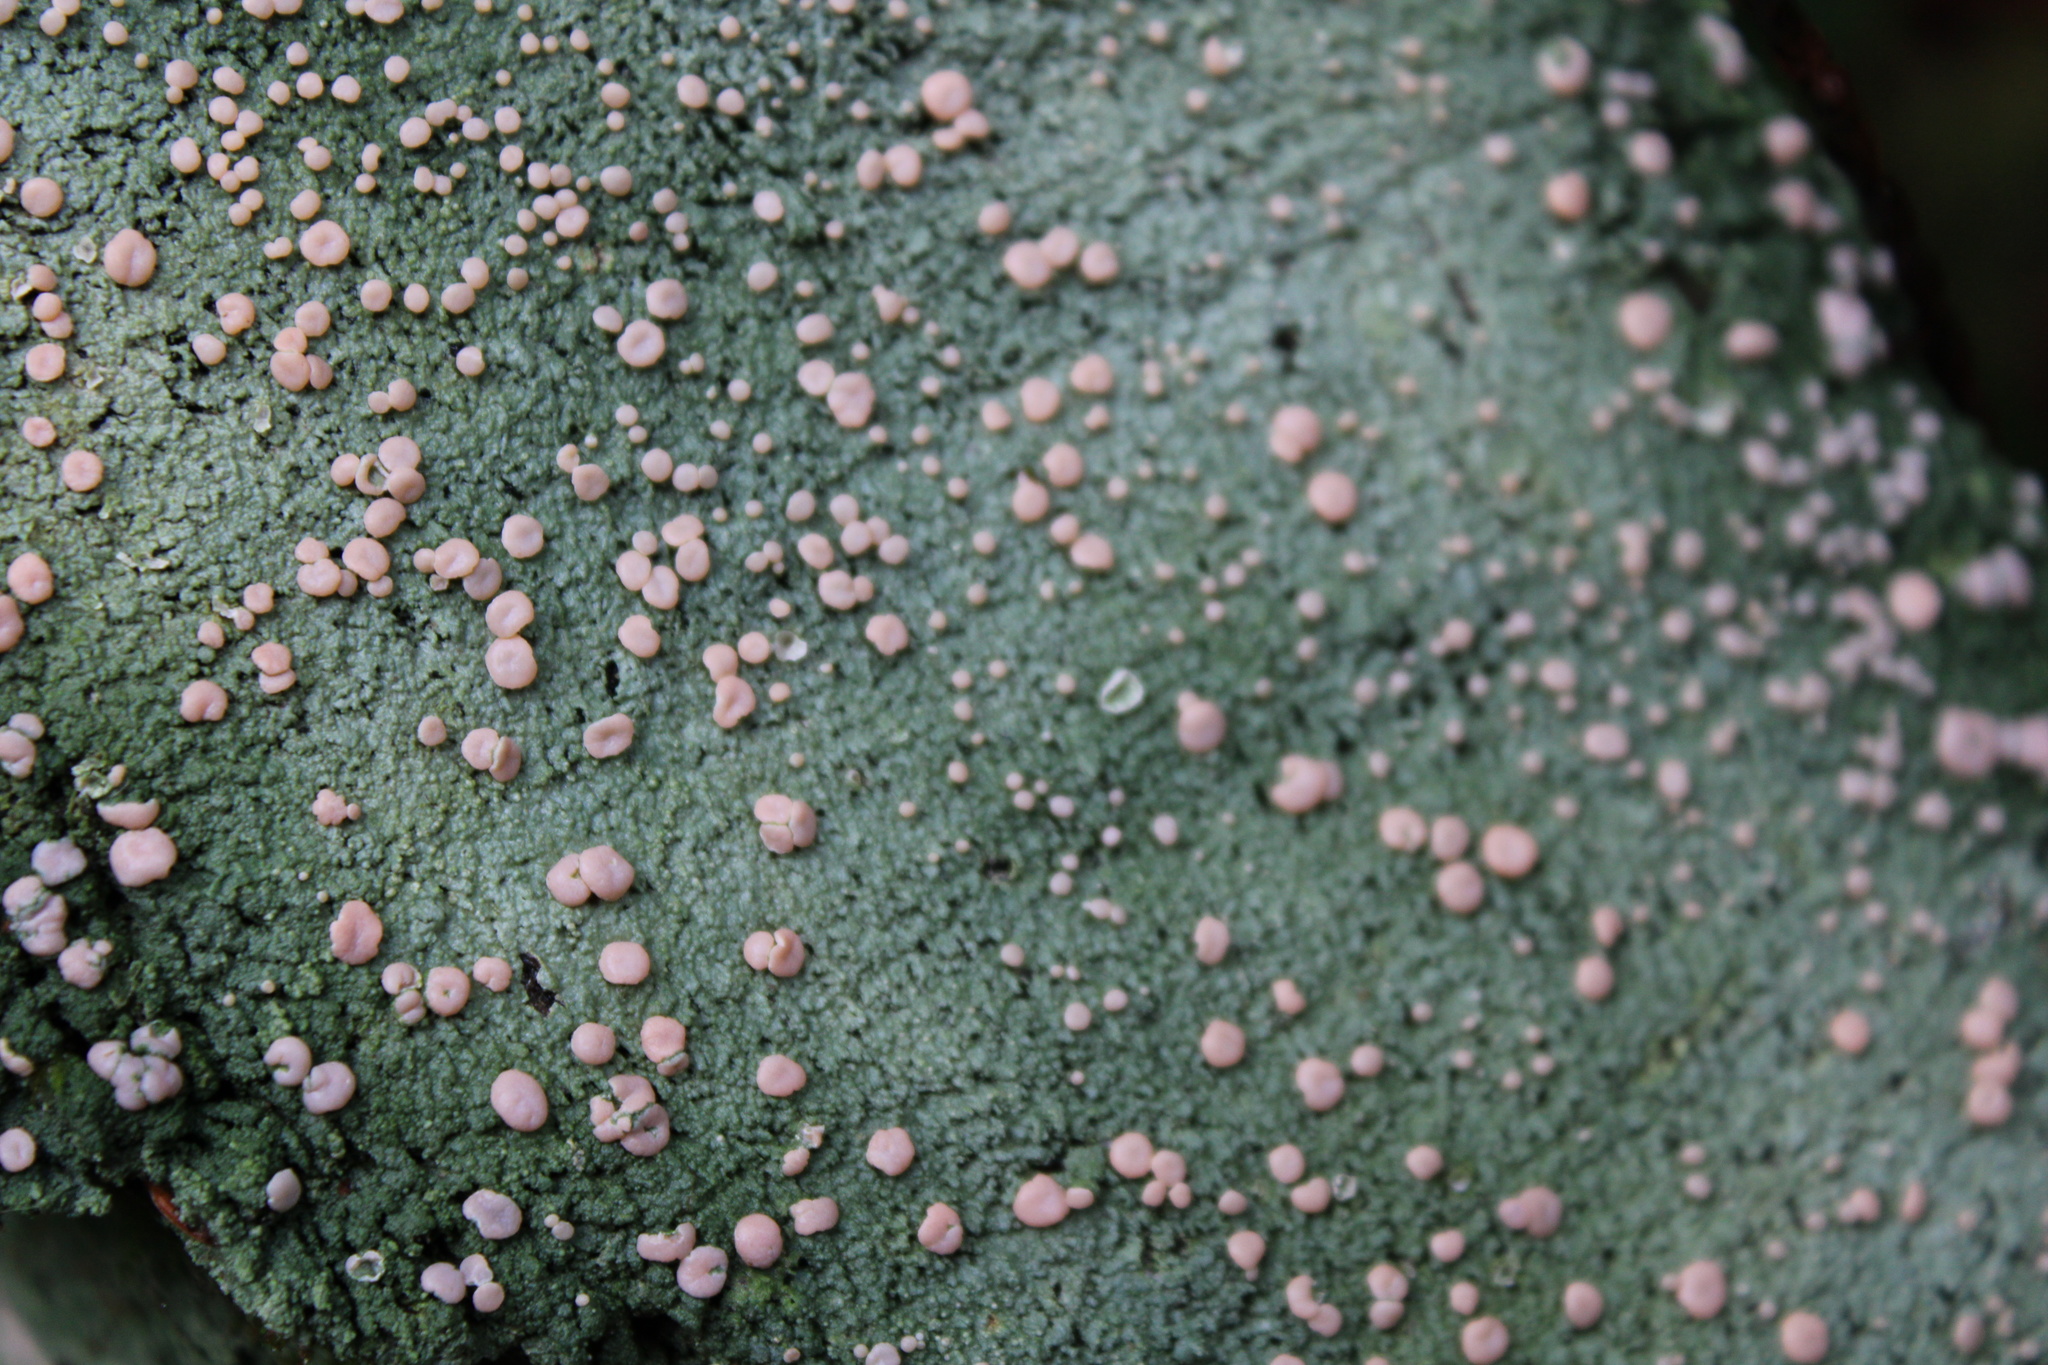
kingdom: Fungi
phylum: Ascomycota
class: Lecanoromycetes
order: Pertusariales
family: Icmadophilaceae
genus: Icmadophila
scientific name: Icmadophila ericetorum
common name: Candy lichen
